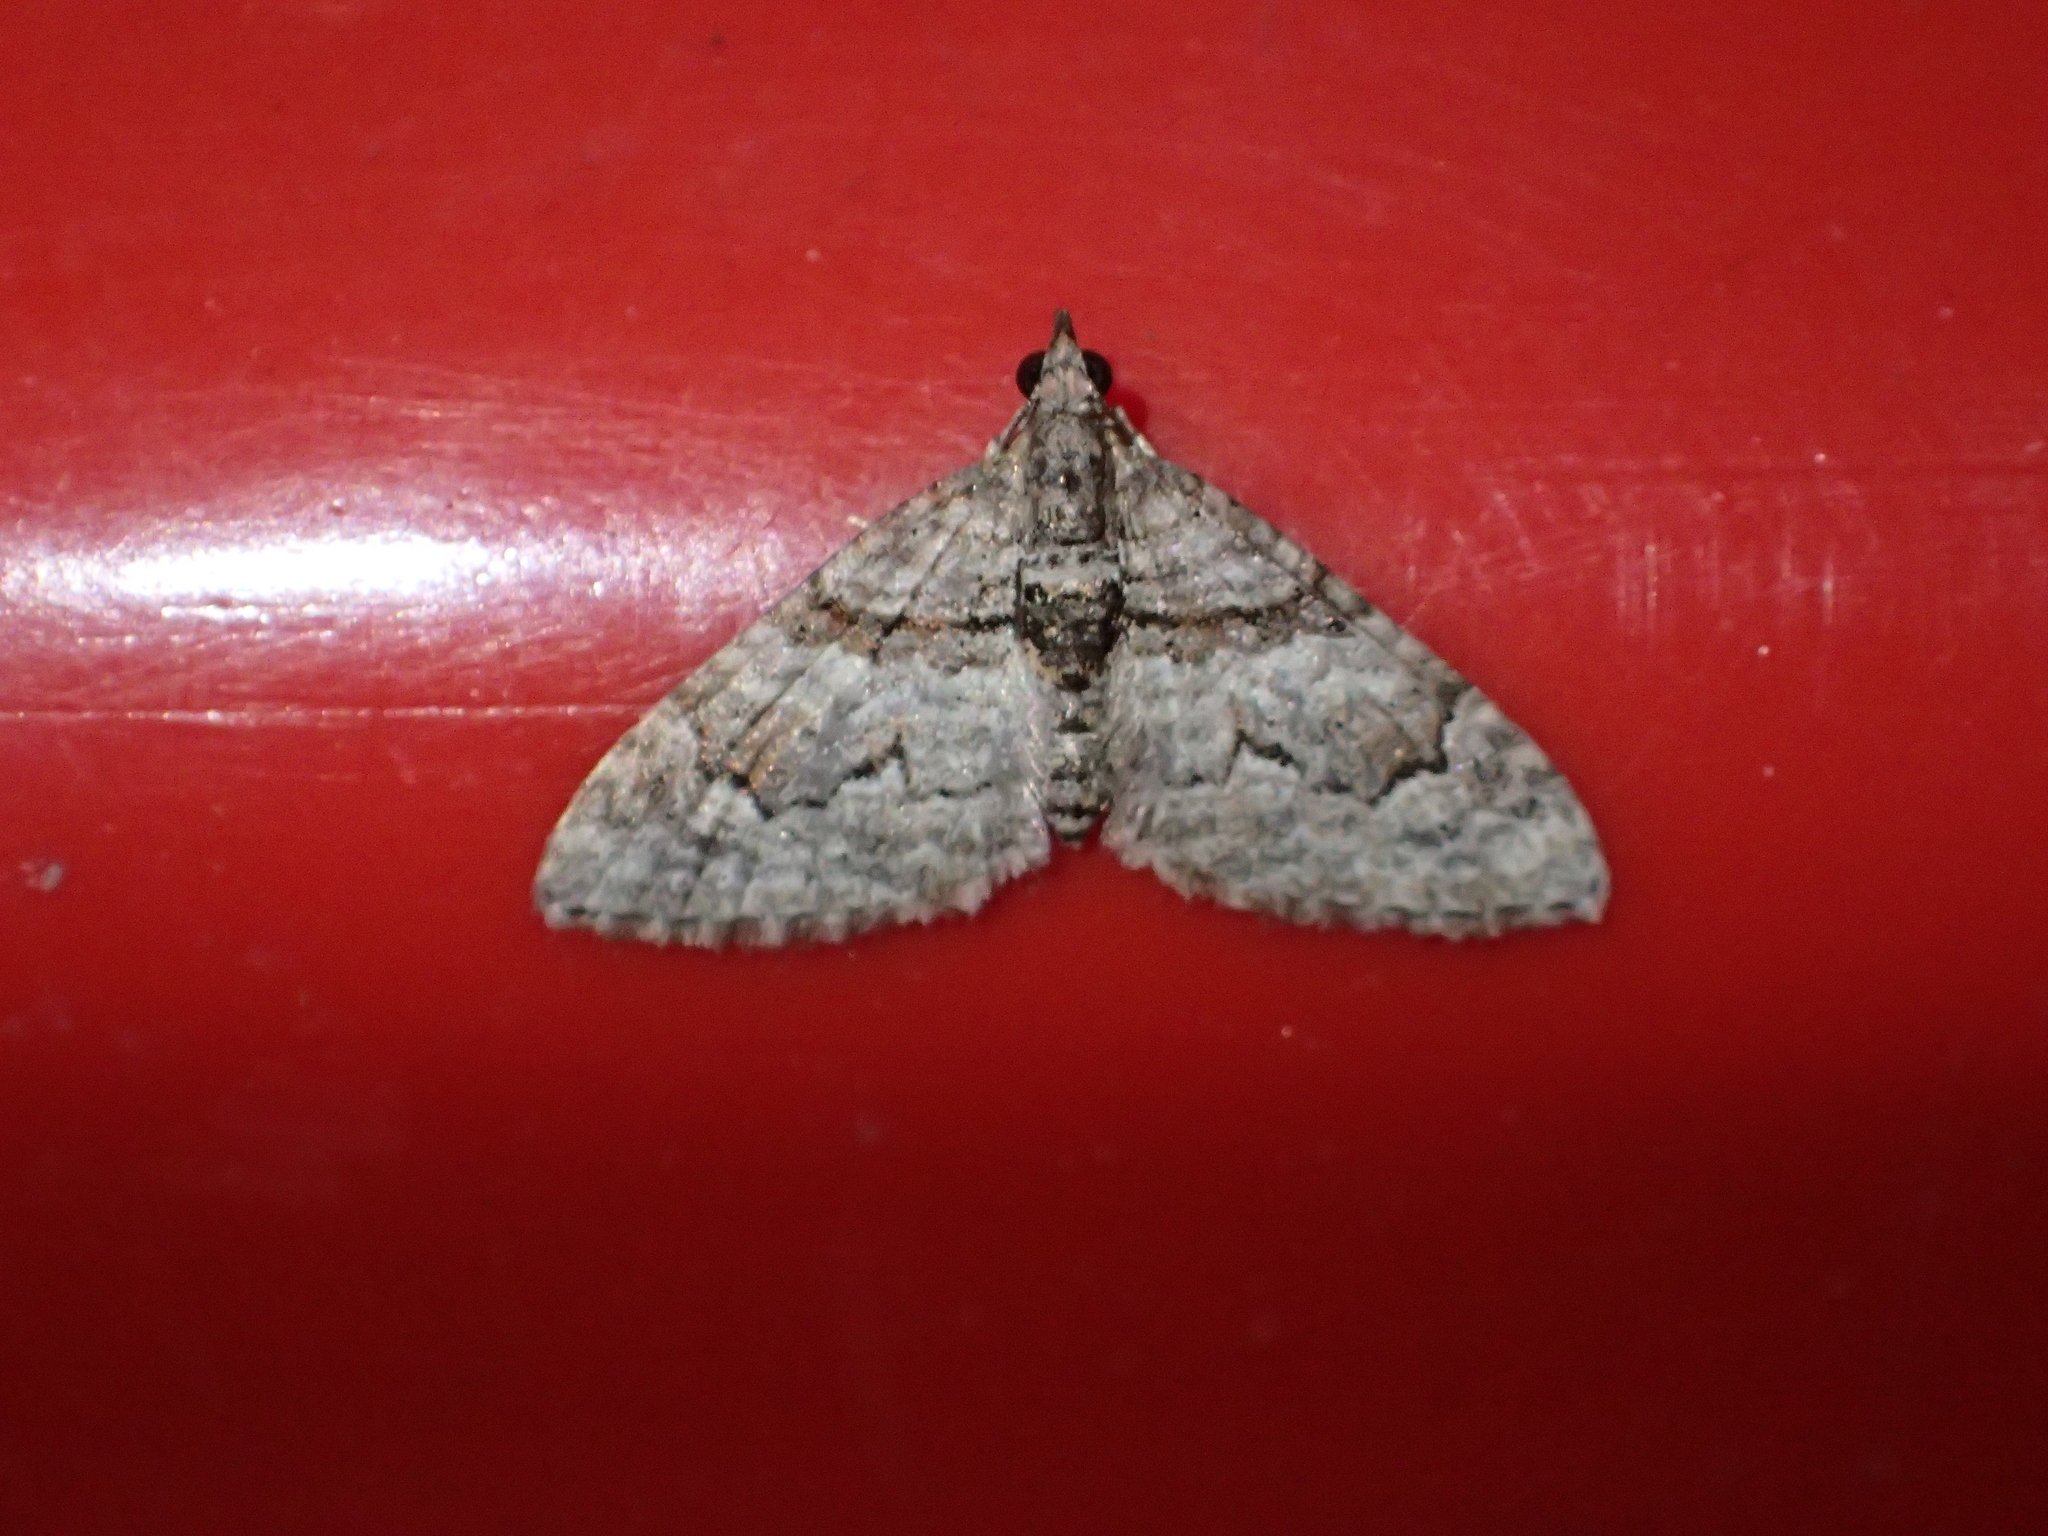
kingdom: Animalia
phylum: Arthropoda
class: Insecta
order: Lepidoptera
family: Geometridae
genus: Phrissogonus
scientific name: Phrissogonus laticostata
